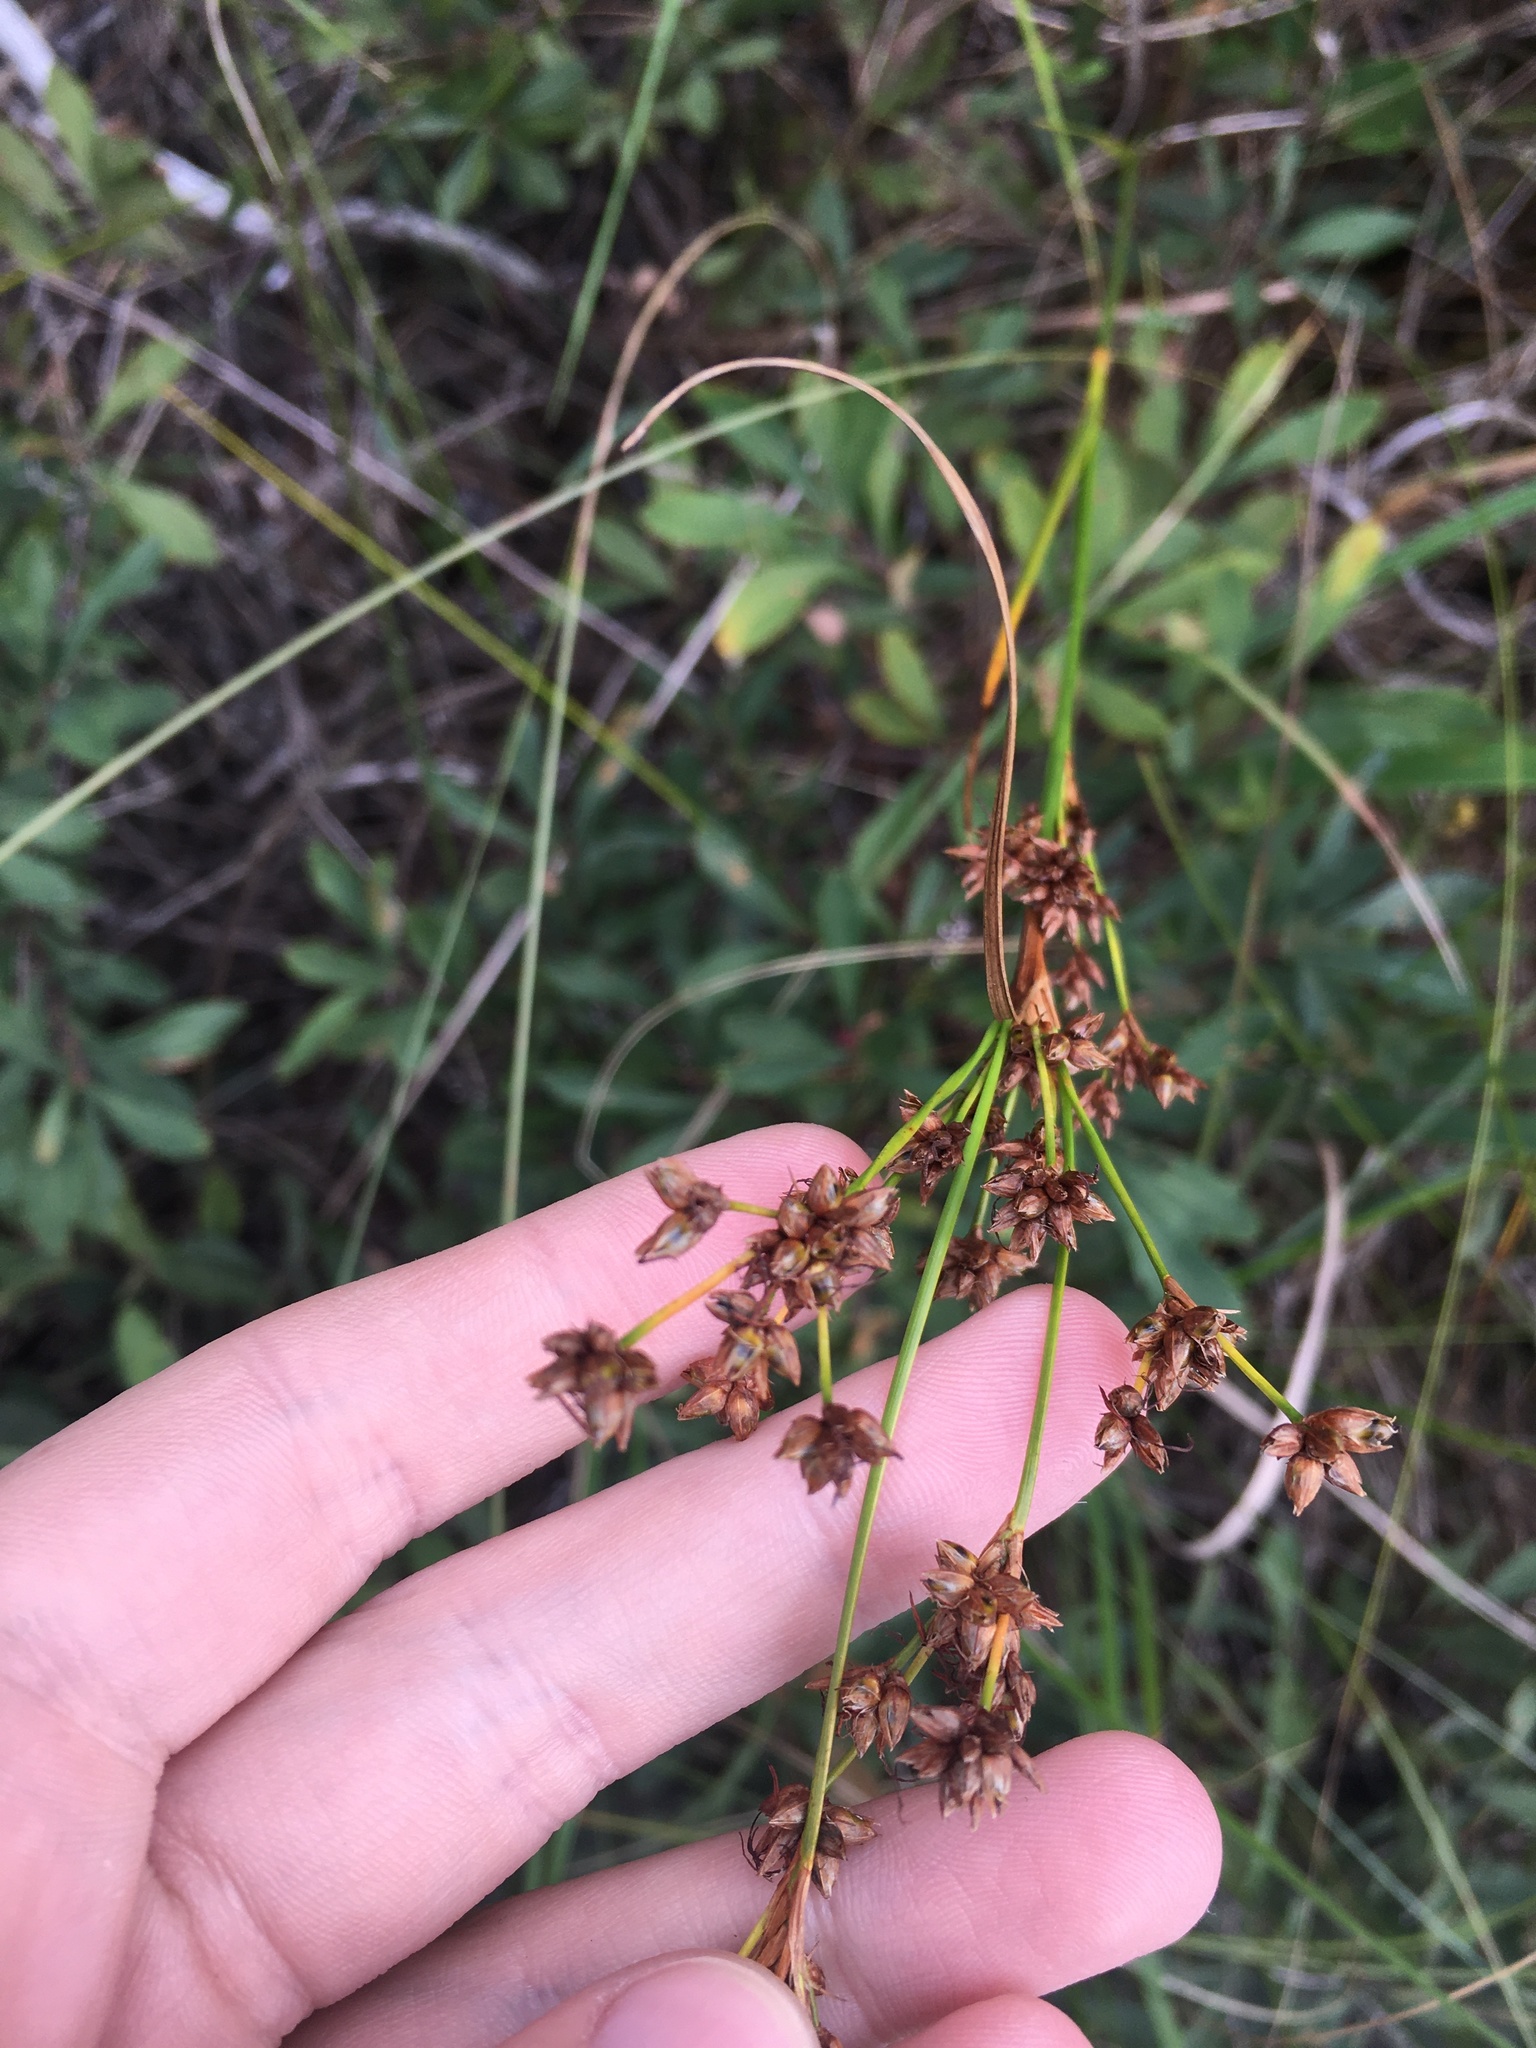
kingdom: Plantae
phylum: Tracheophyta
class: Liliopsida
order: Poales
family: Cyperaceae
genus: Cladium
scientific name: Cladium mariscoides
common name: Smooth sawgrass
